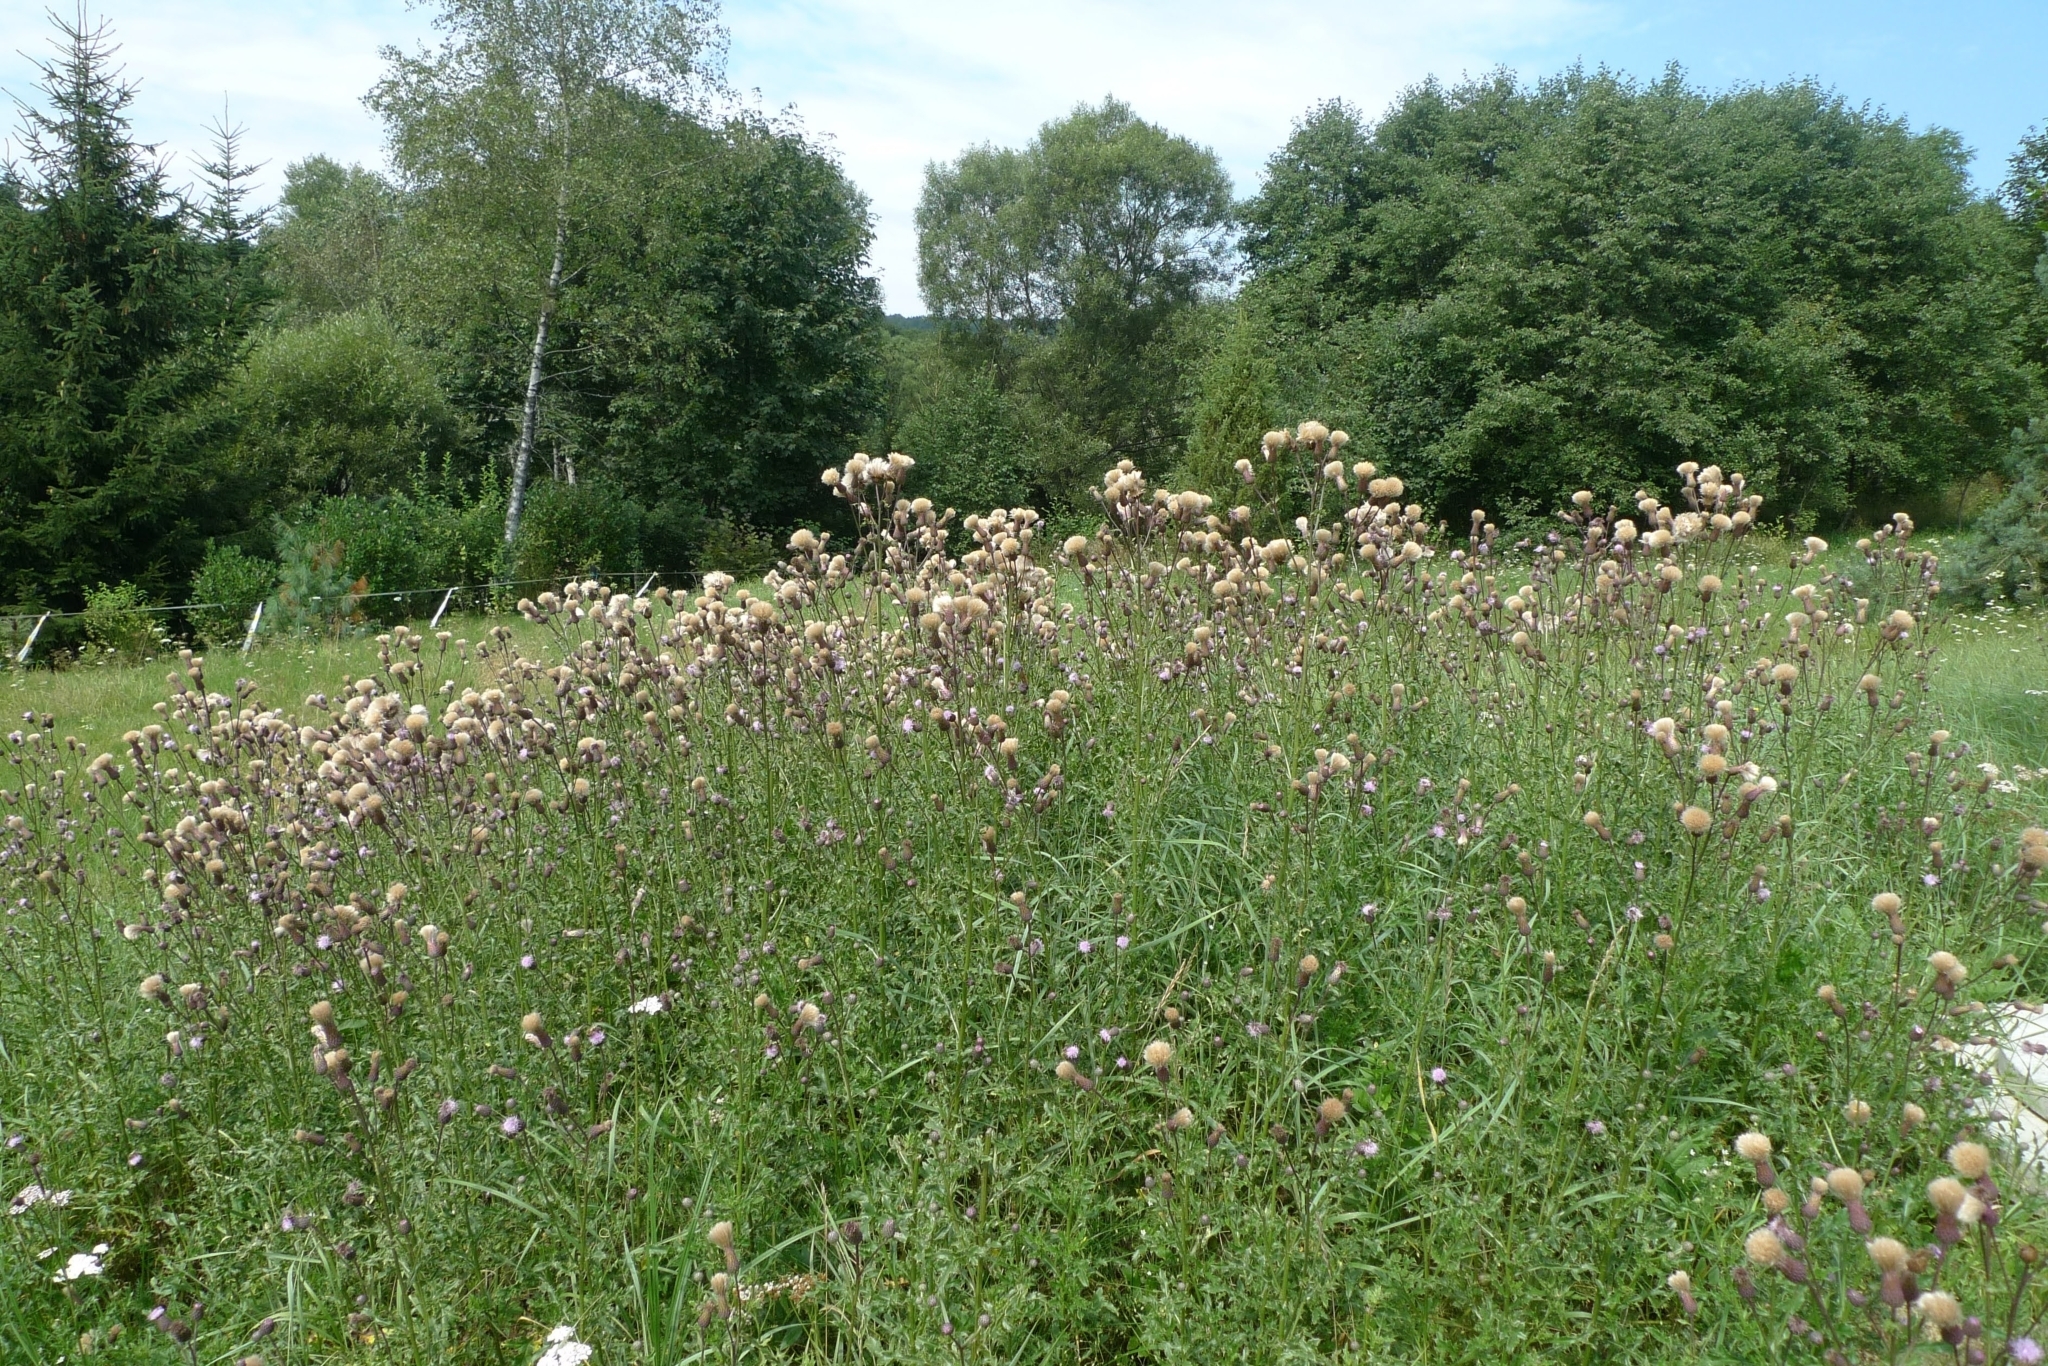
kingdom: Plantae
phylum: Tracheophyta
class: Magnoliopsida
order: Asterales
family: Asteraceae
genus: Cirsium
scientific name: Cirsium arvense
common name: Creeping thistle
